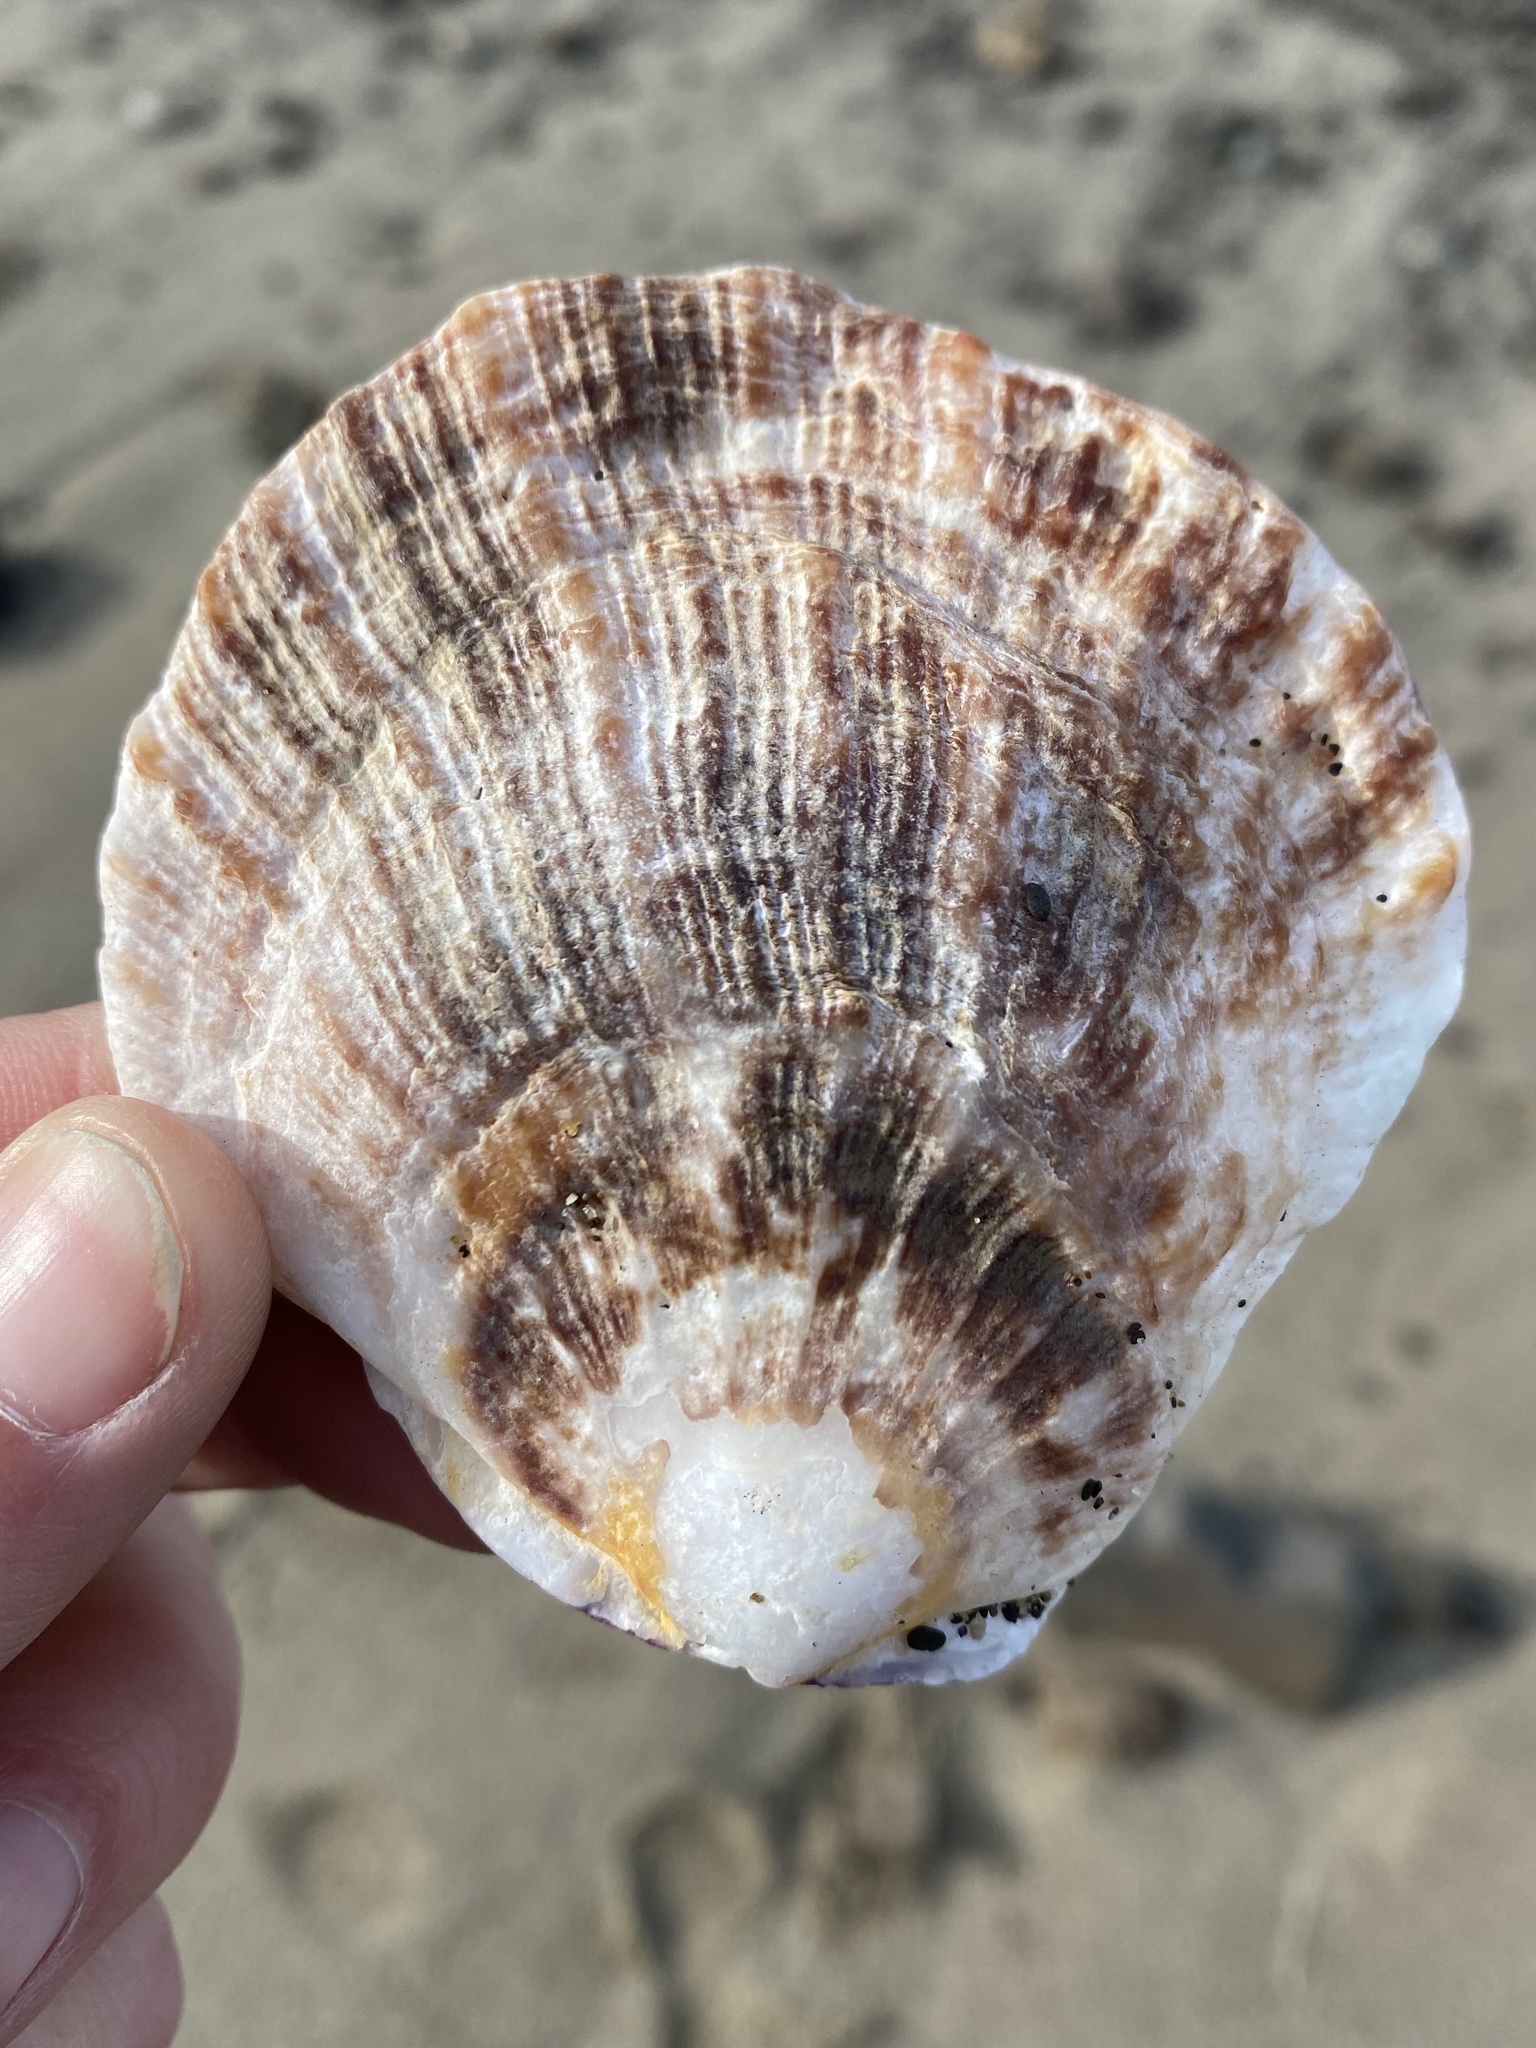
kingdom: Animalia
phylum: Mollusca
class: Bivalvia
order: Pectinida
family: Pectinidae
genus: Crassadoma
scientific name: Crassadoma gigantea
